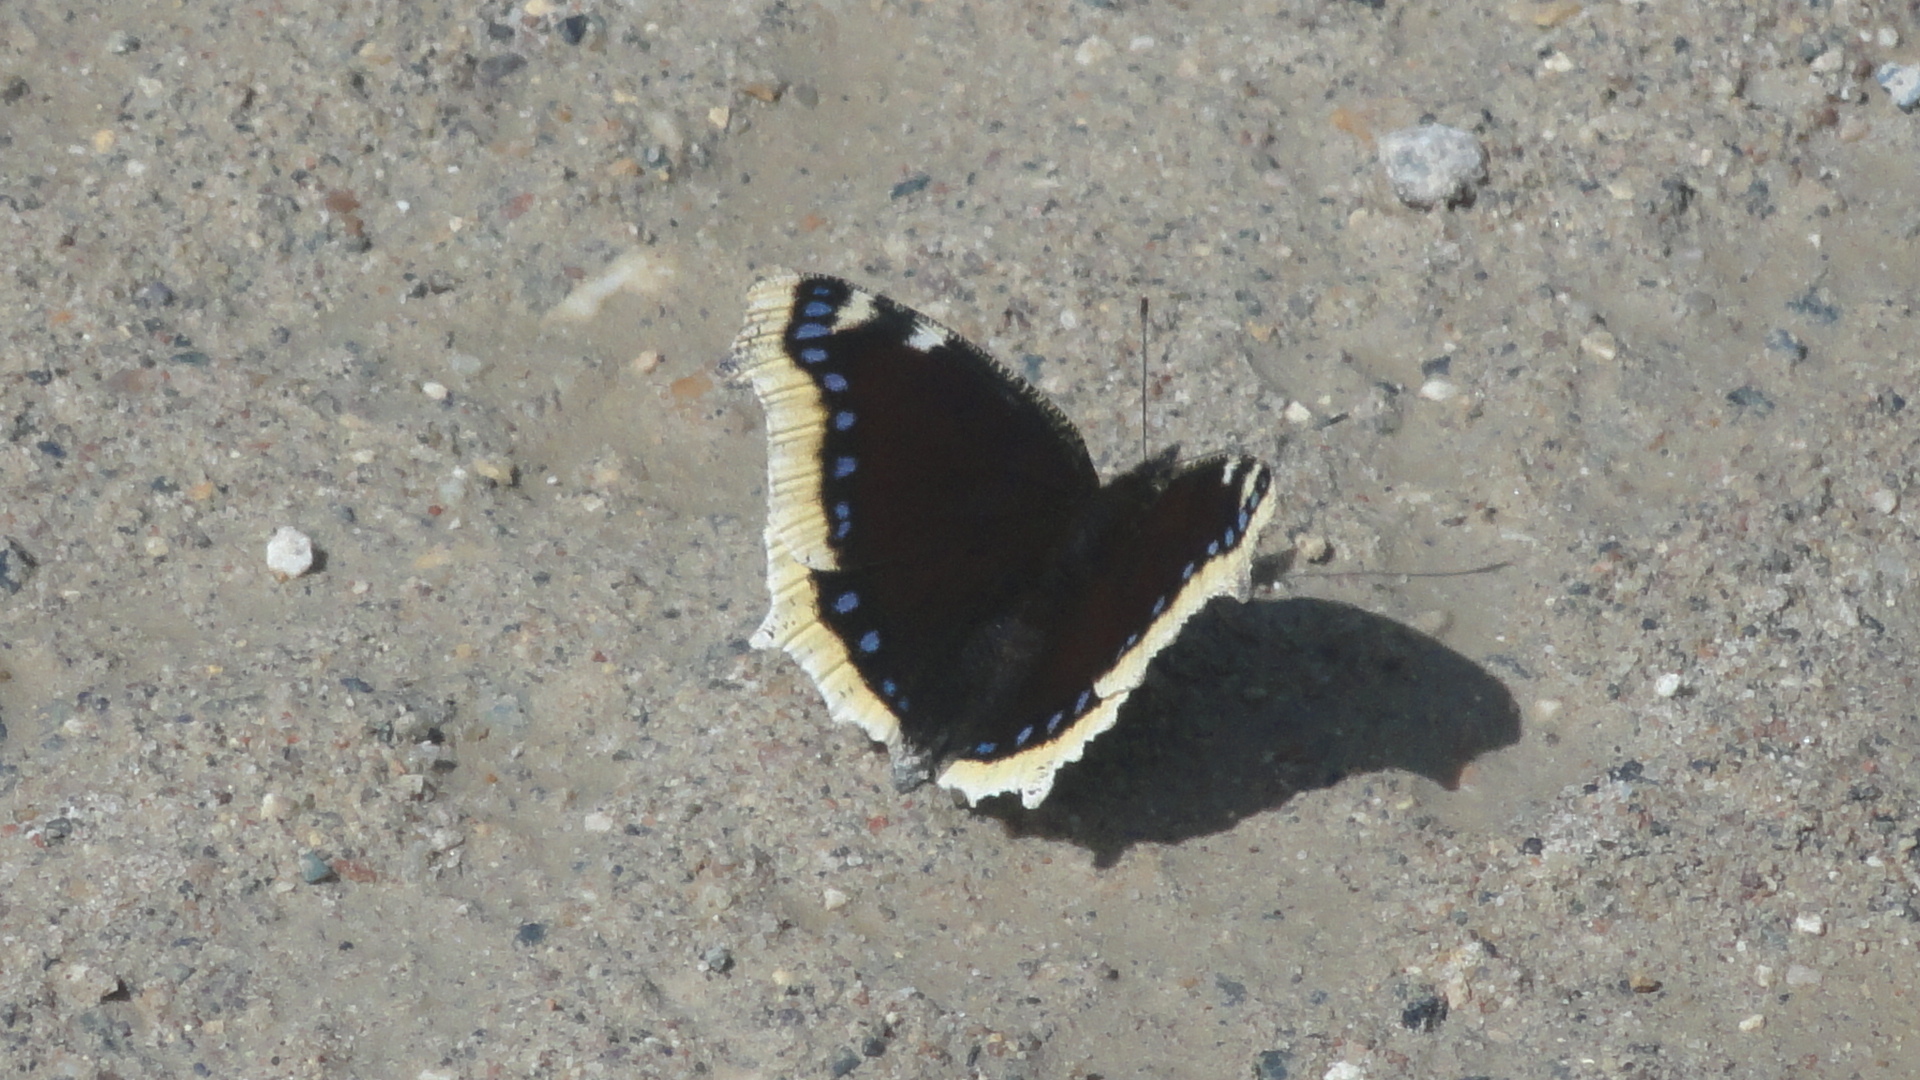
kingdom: Animalia
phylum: Arthropoda
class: Insecta
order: Lepidoptera
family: Nymphalidae
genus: Nymphalis
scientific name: Nymphalis antiopa
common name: Camberwell beauty
